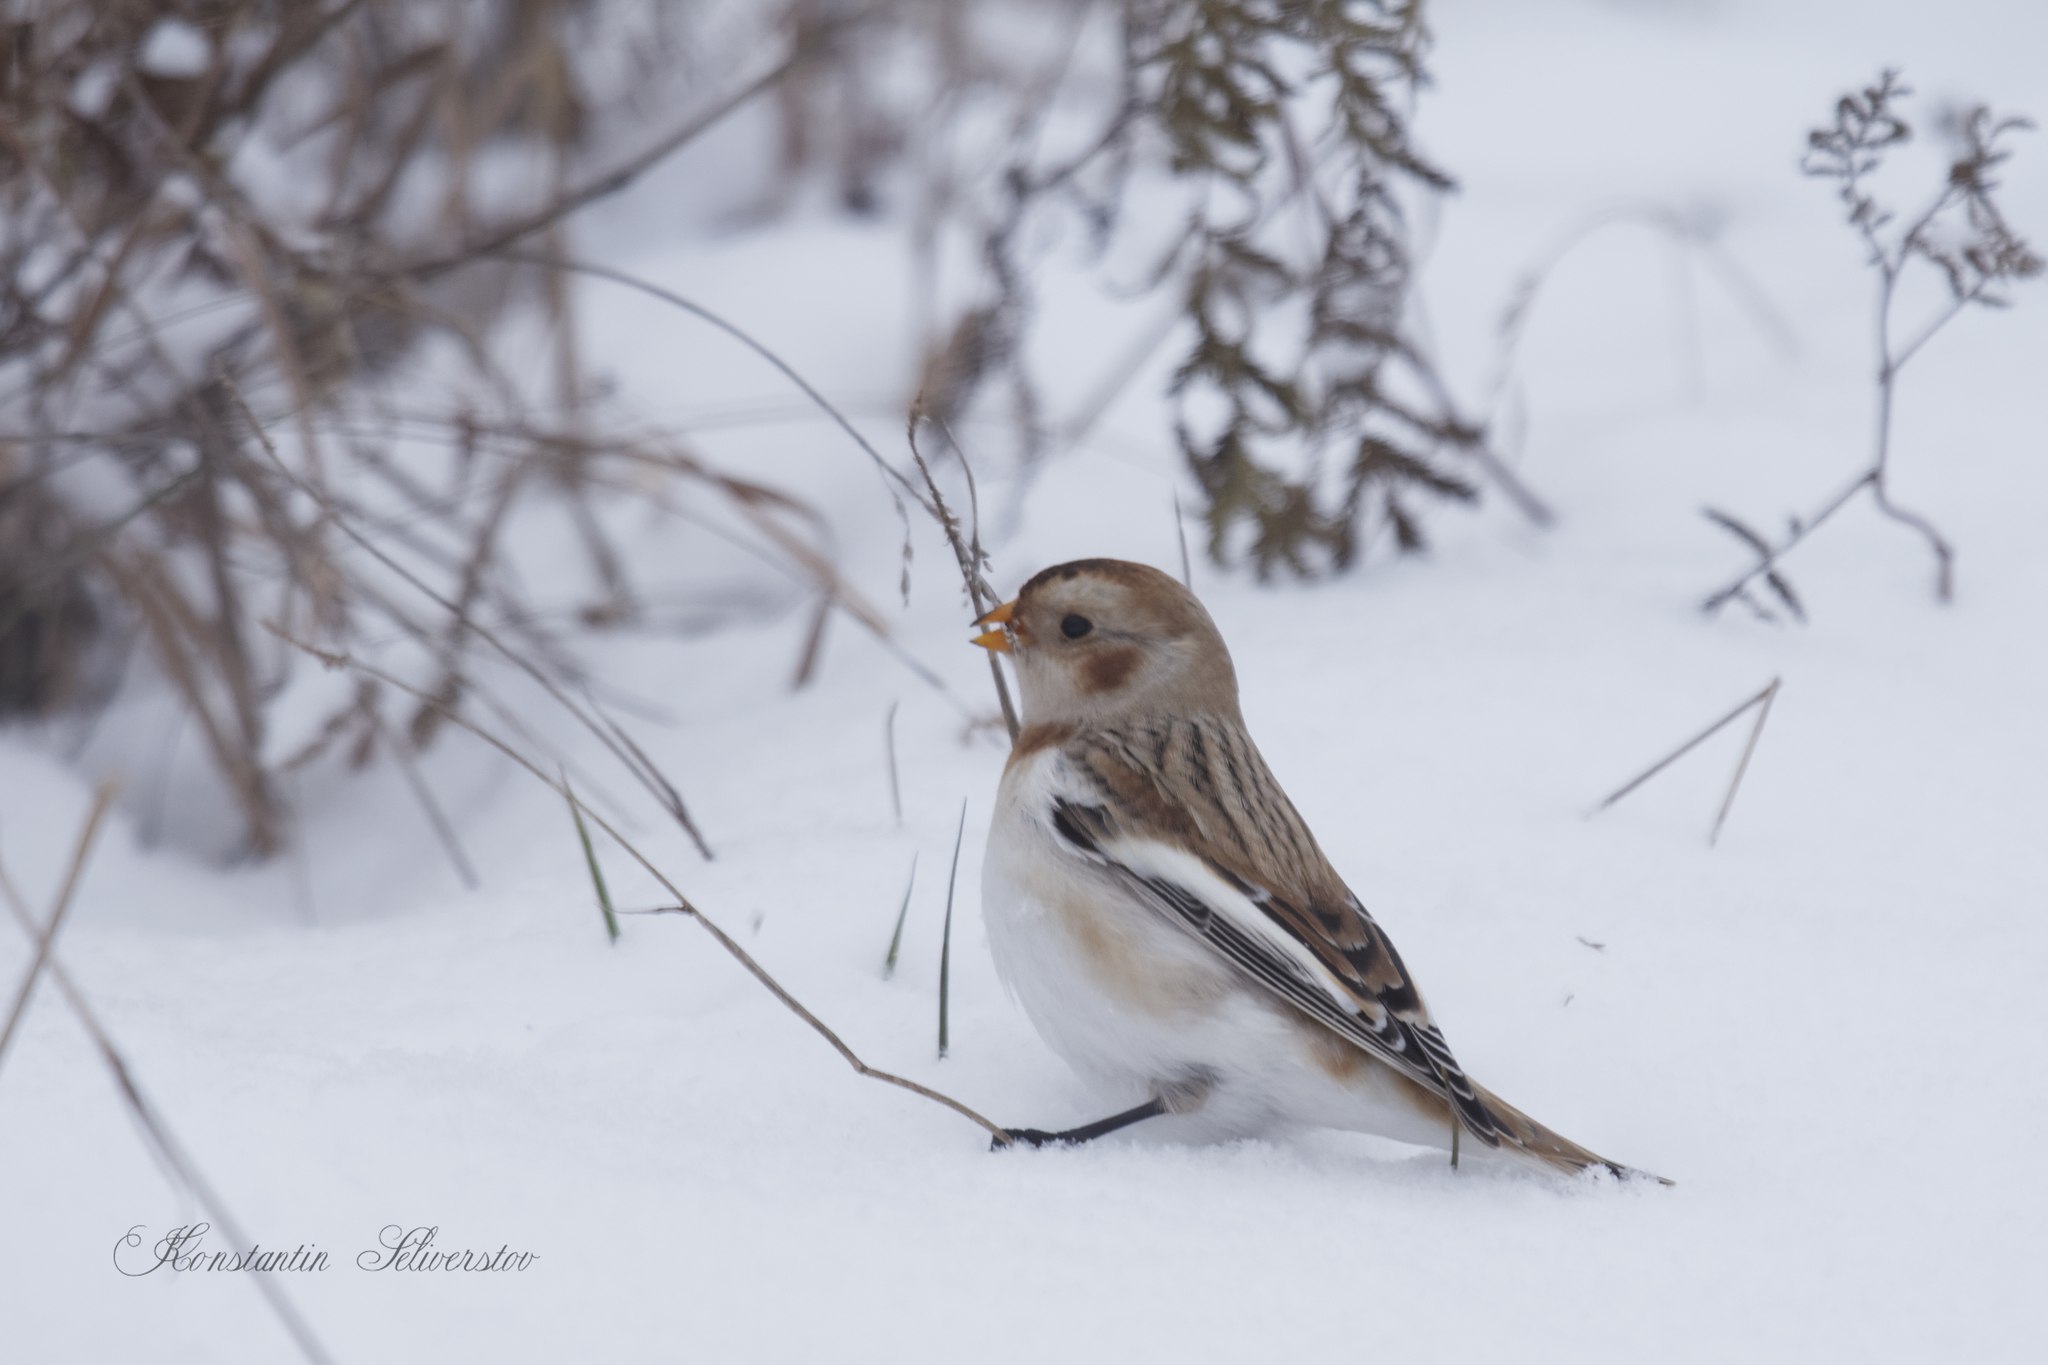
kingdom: Animalia
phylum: Chordata
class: Aves
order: Passeriformes
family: Calcariidae
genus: Plectrophenax
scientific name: Plectrophenax nivalis
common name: Snow bunting
